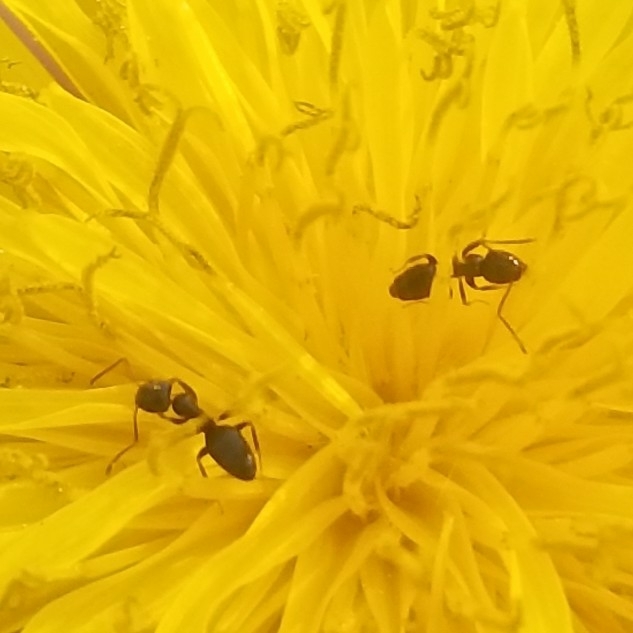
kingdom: Animalia
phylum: Arthropoda
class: Insecta
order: Hymenoptera
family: Formicidae
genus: Tapinoma
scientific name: Tapinoma sessile
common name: Odorous house ant
